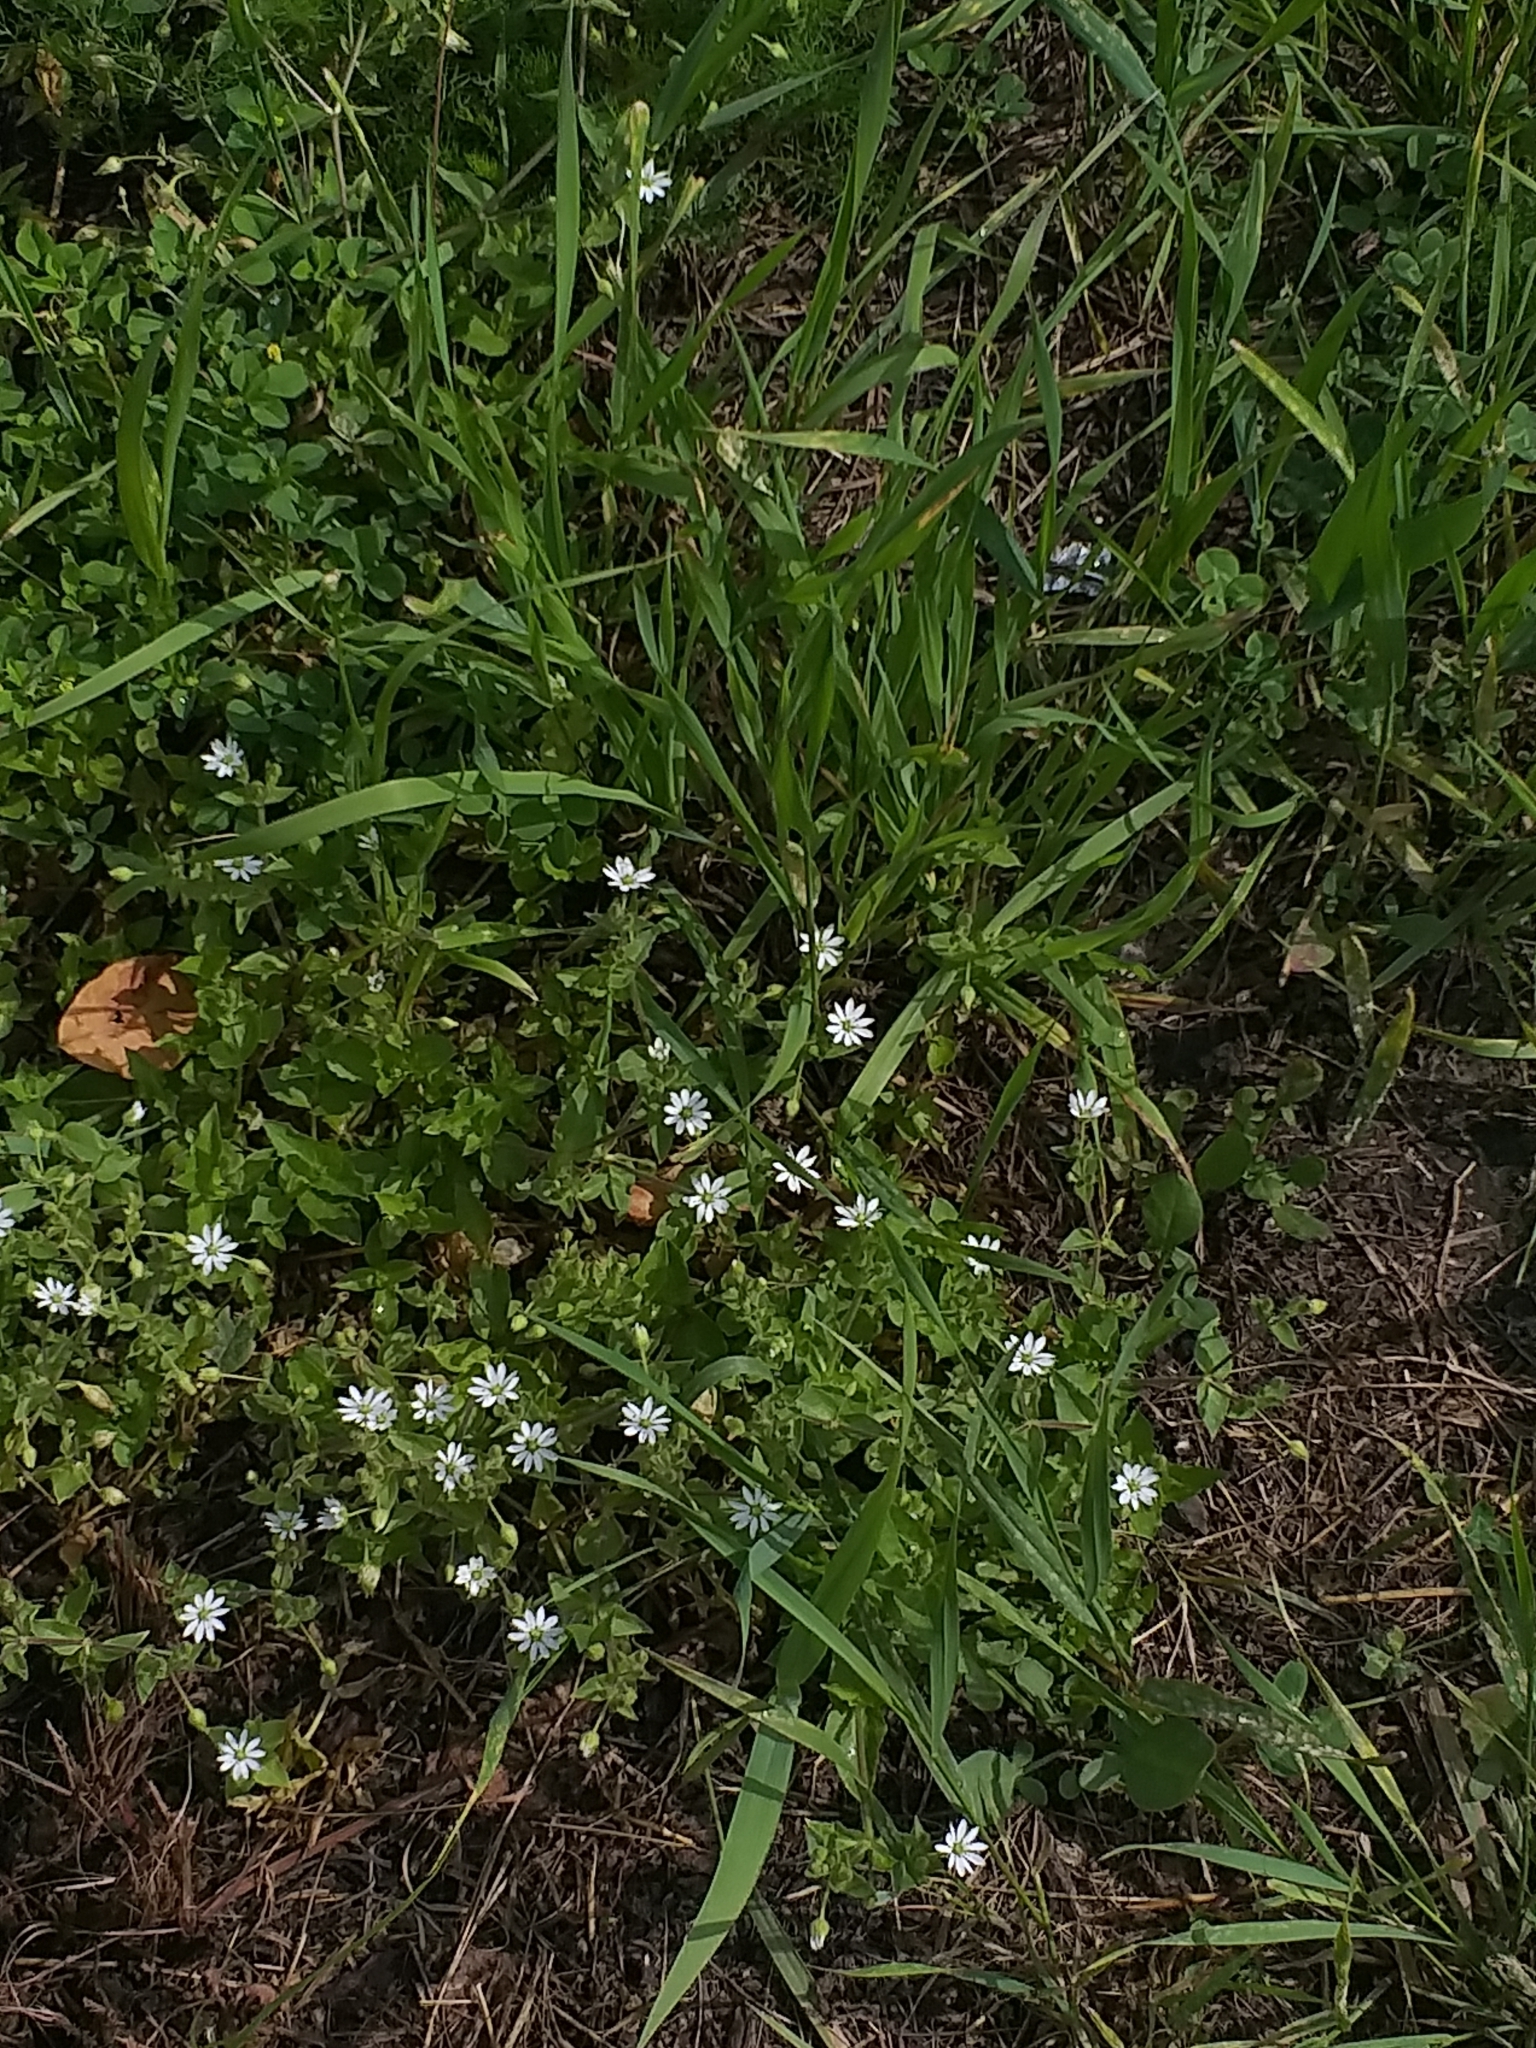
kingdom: Plantae
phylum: Tracheophyta
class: Magnoliopsida
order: Caryophyllales
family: Caryophyllaceae
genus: Stellaria
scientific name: Stellaria aquatica
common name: Water chickweed
